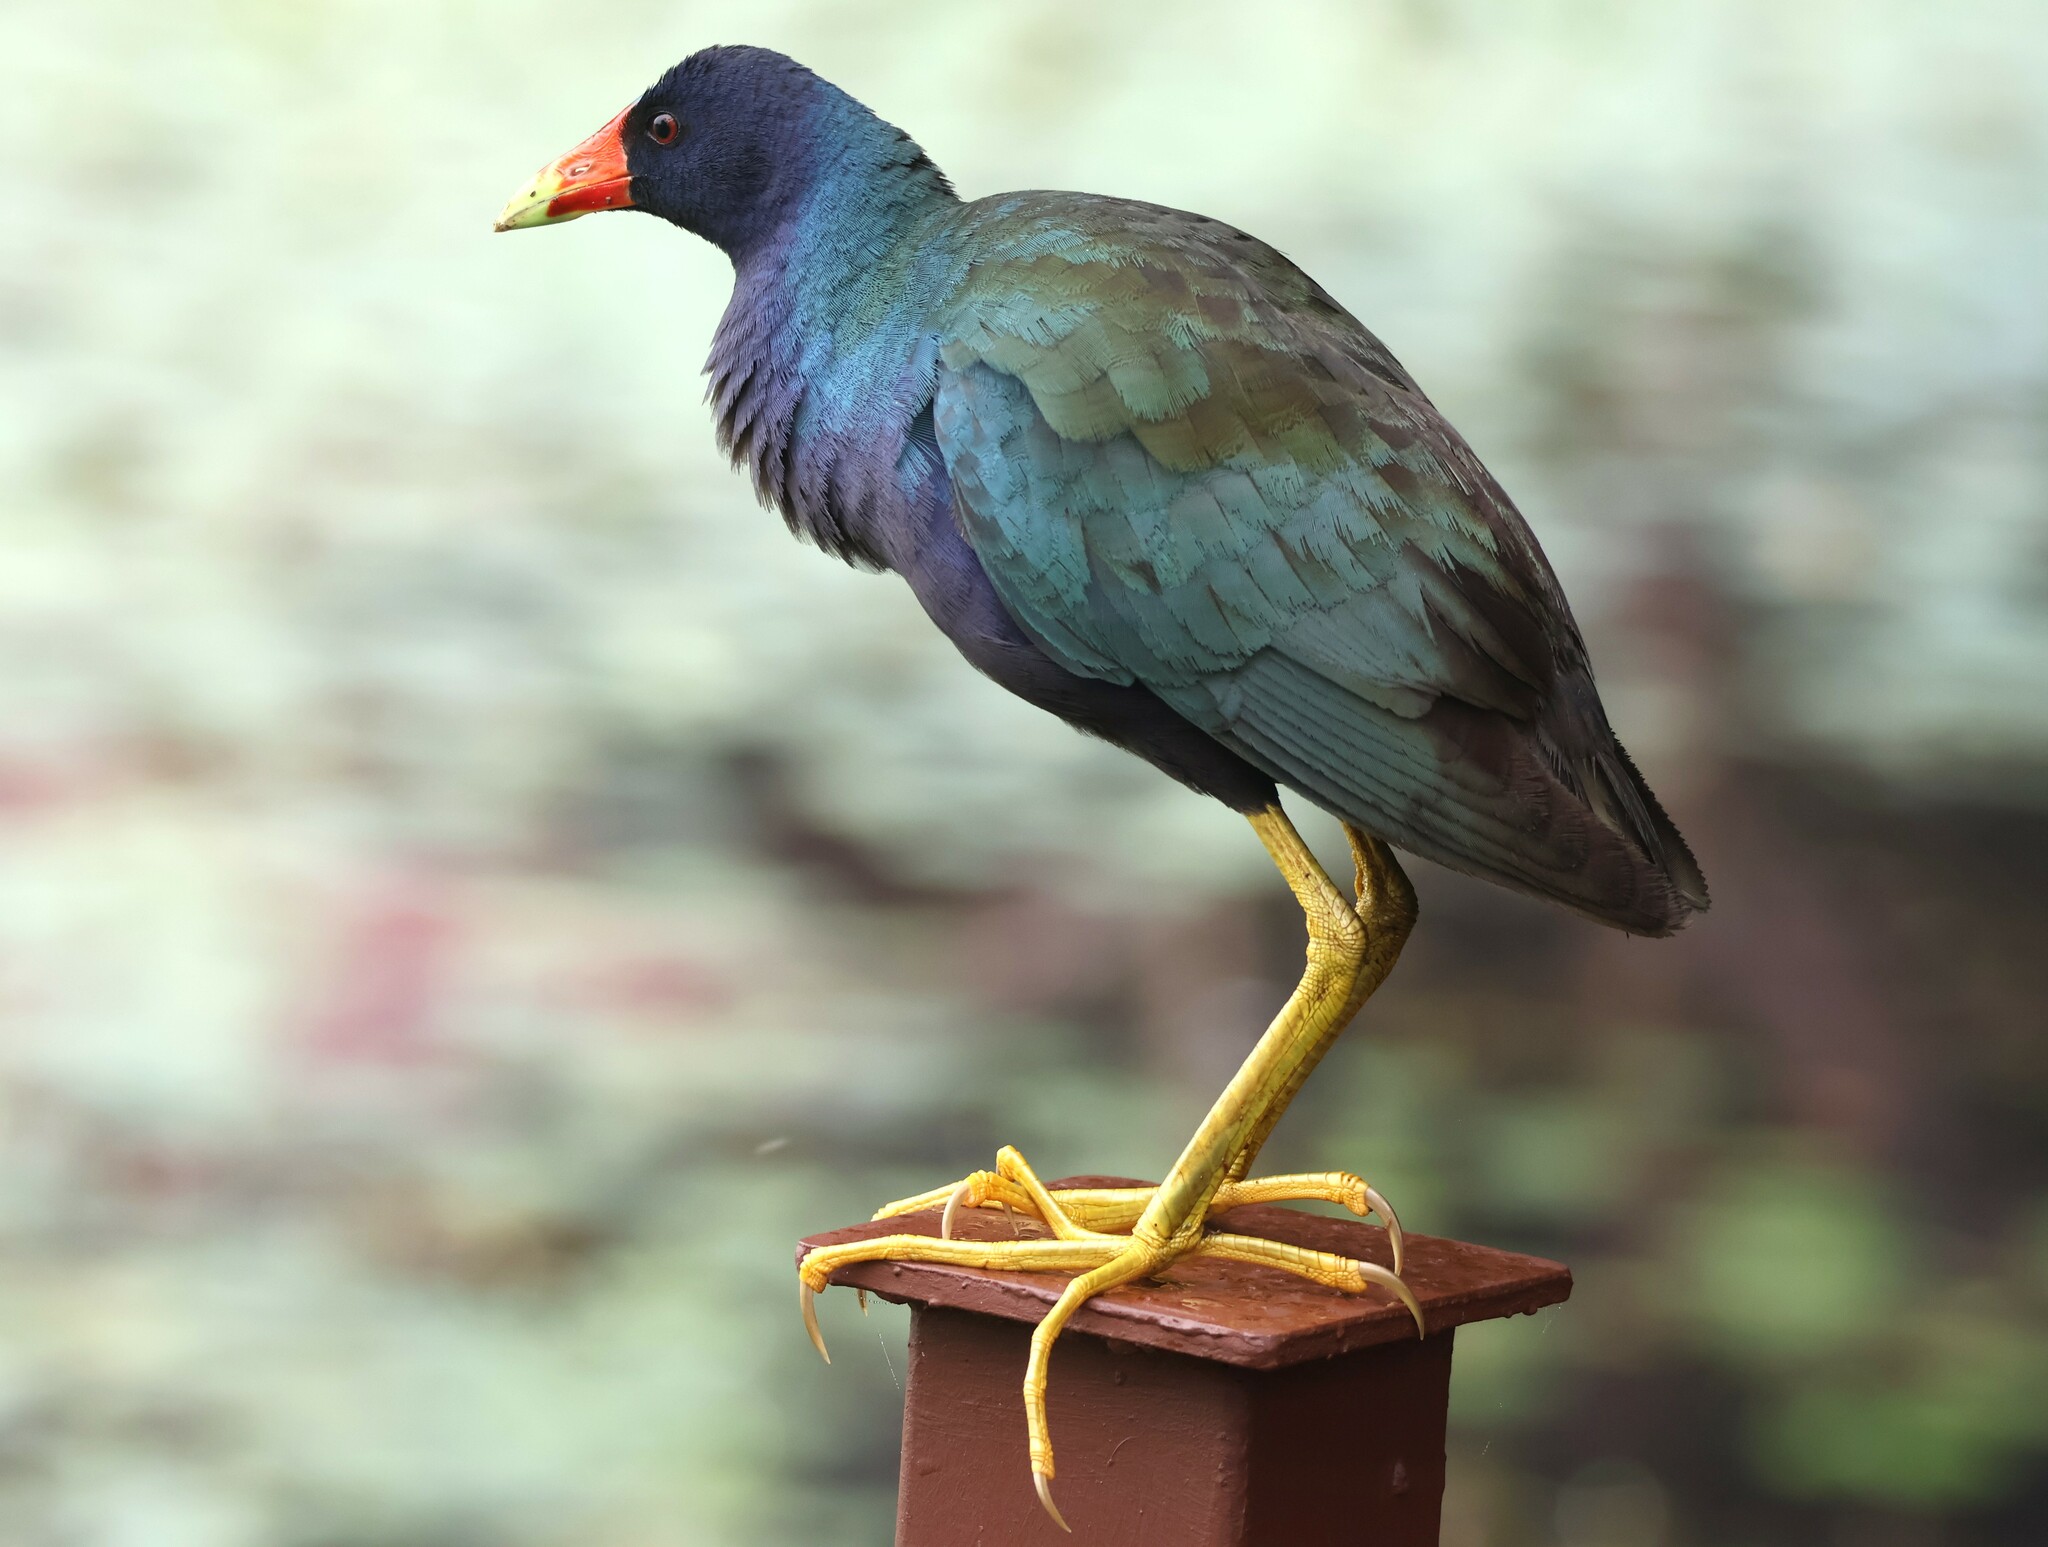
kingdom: Animalia
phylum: Chordata
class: Aves
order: Gruiformes
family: Rallidae
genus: Porphyrio
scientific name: Porphyrio martinica
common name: Purple gallinule
